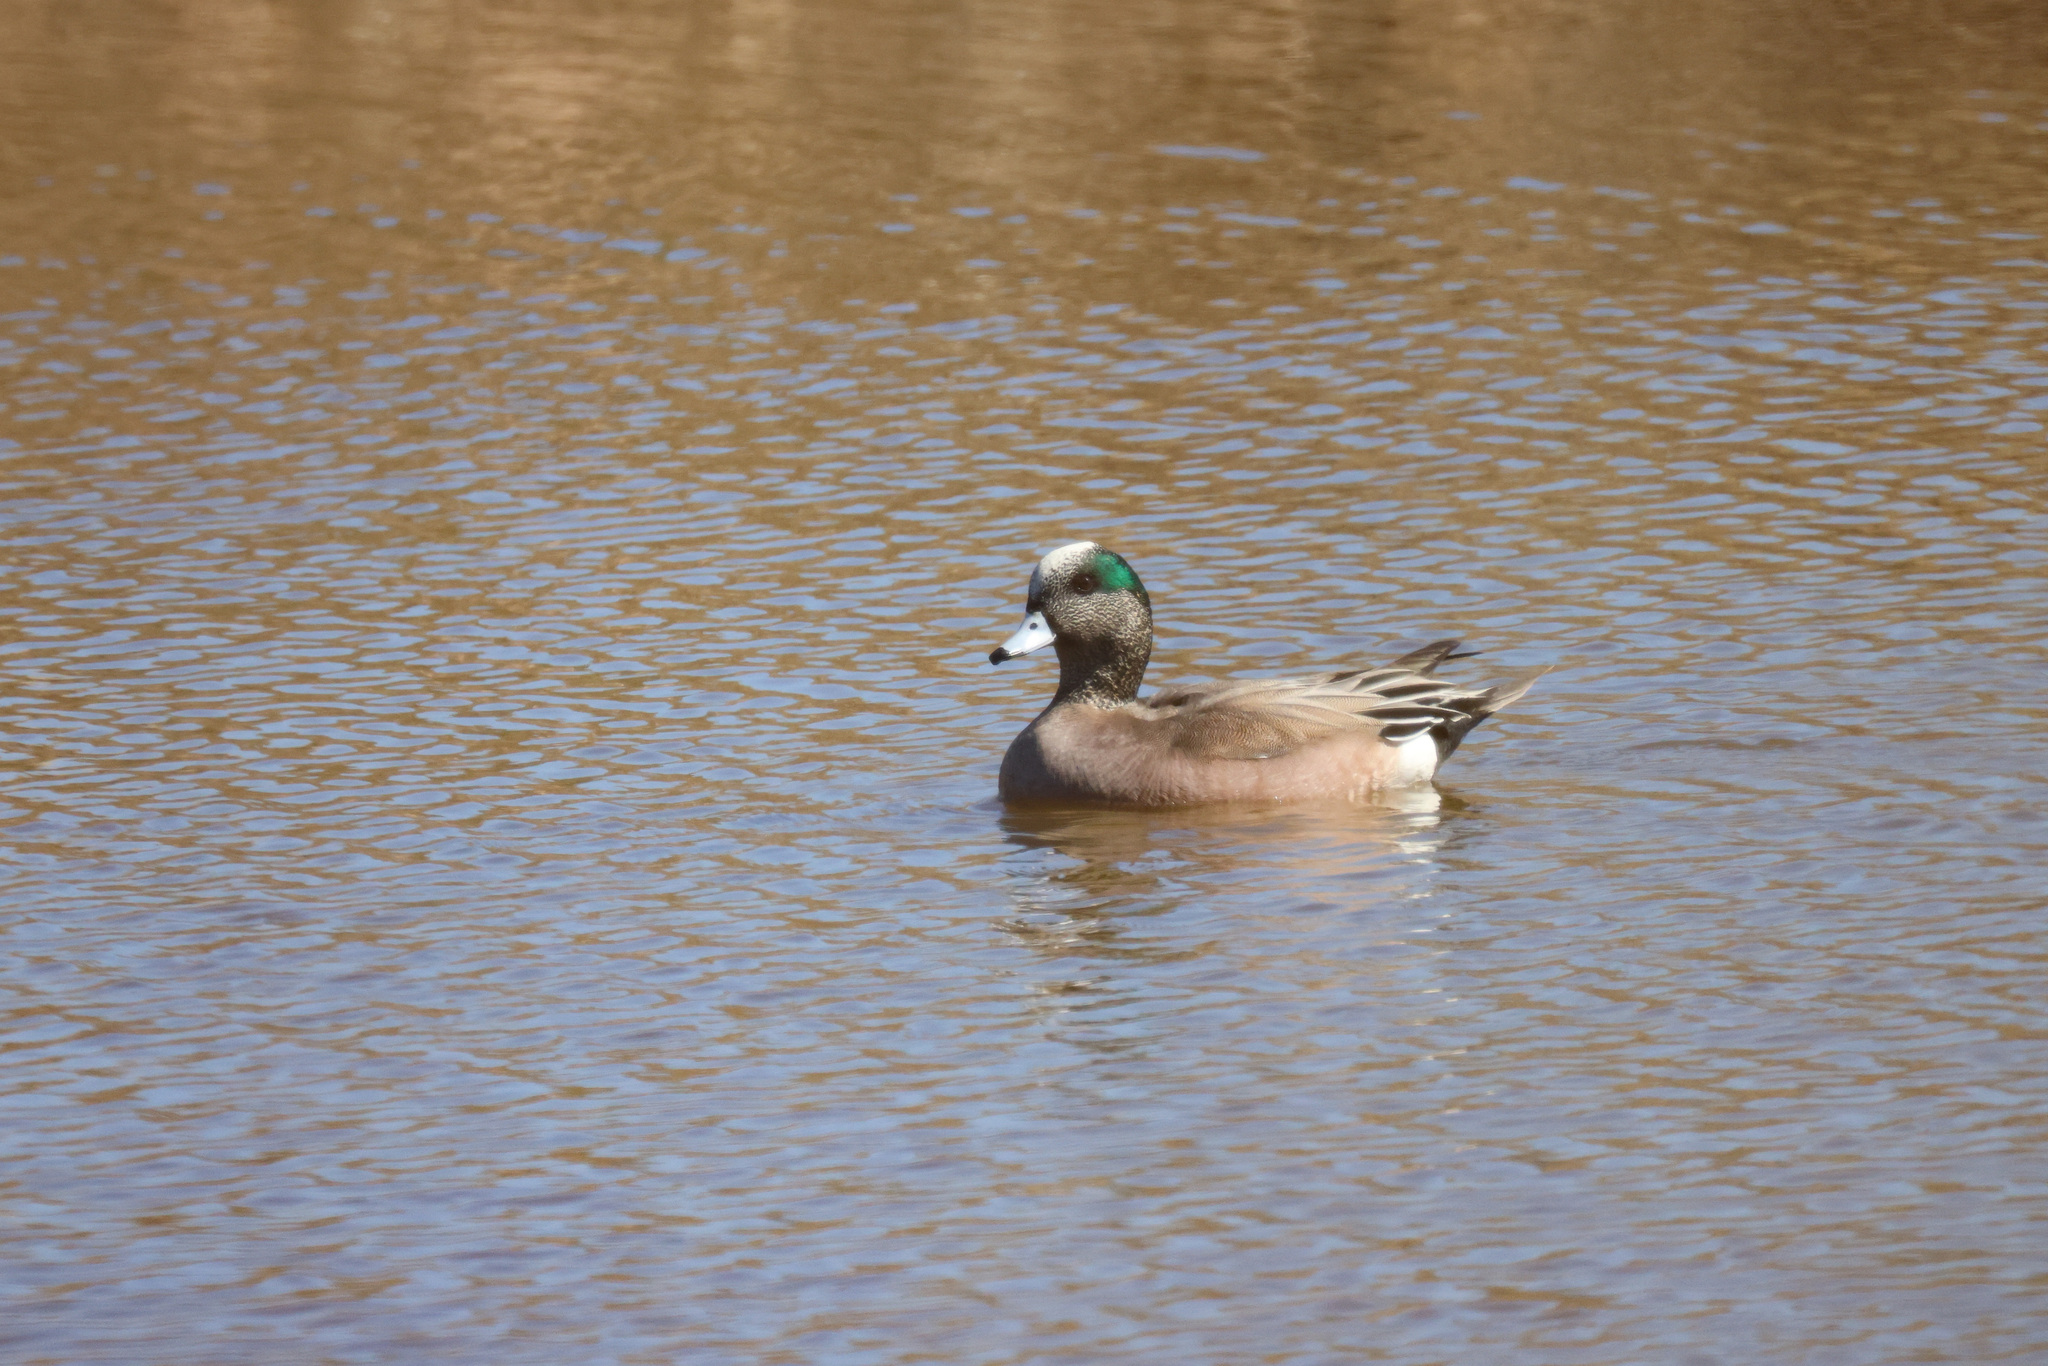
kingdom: Animalia
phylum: Chordata
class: Aves
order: Anseriformes
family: Anatidae
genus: Mareca
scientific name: Mareca americana
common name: American wigeon
